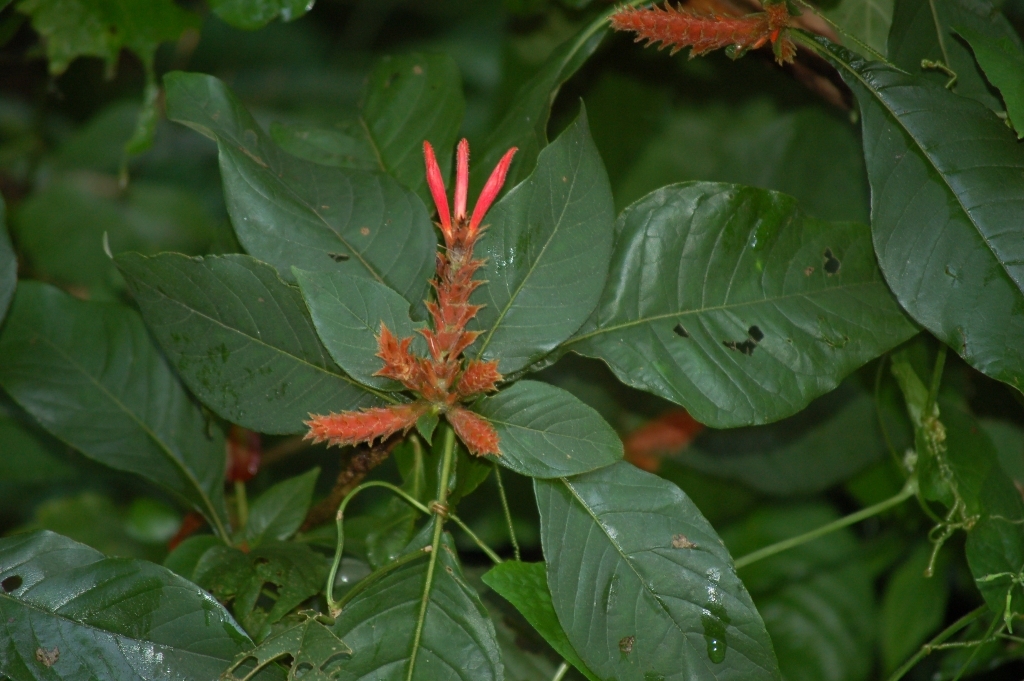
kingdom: Plantae
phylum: Tracheophyta
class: Magnoliopsida
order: Lamiales
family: Acanthaceae
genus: Aphelandra
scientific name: Aphelandra scabra
